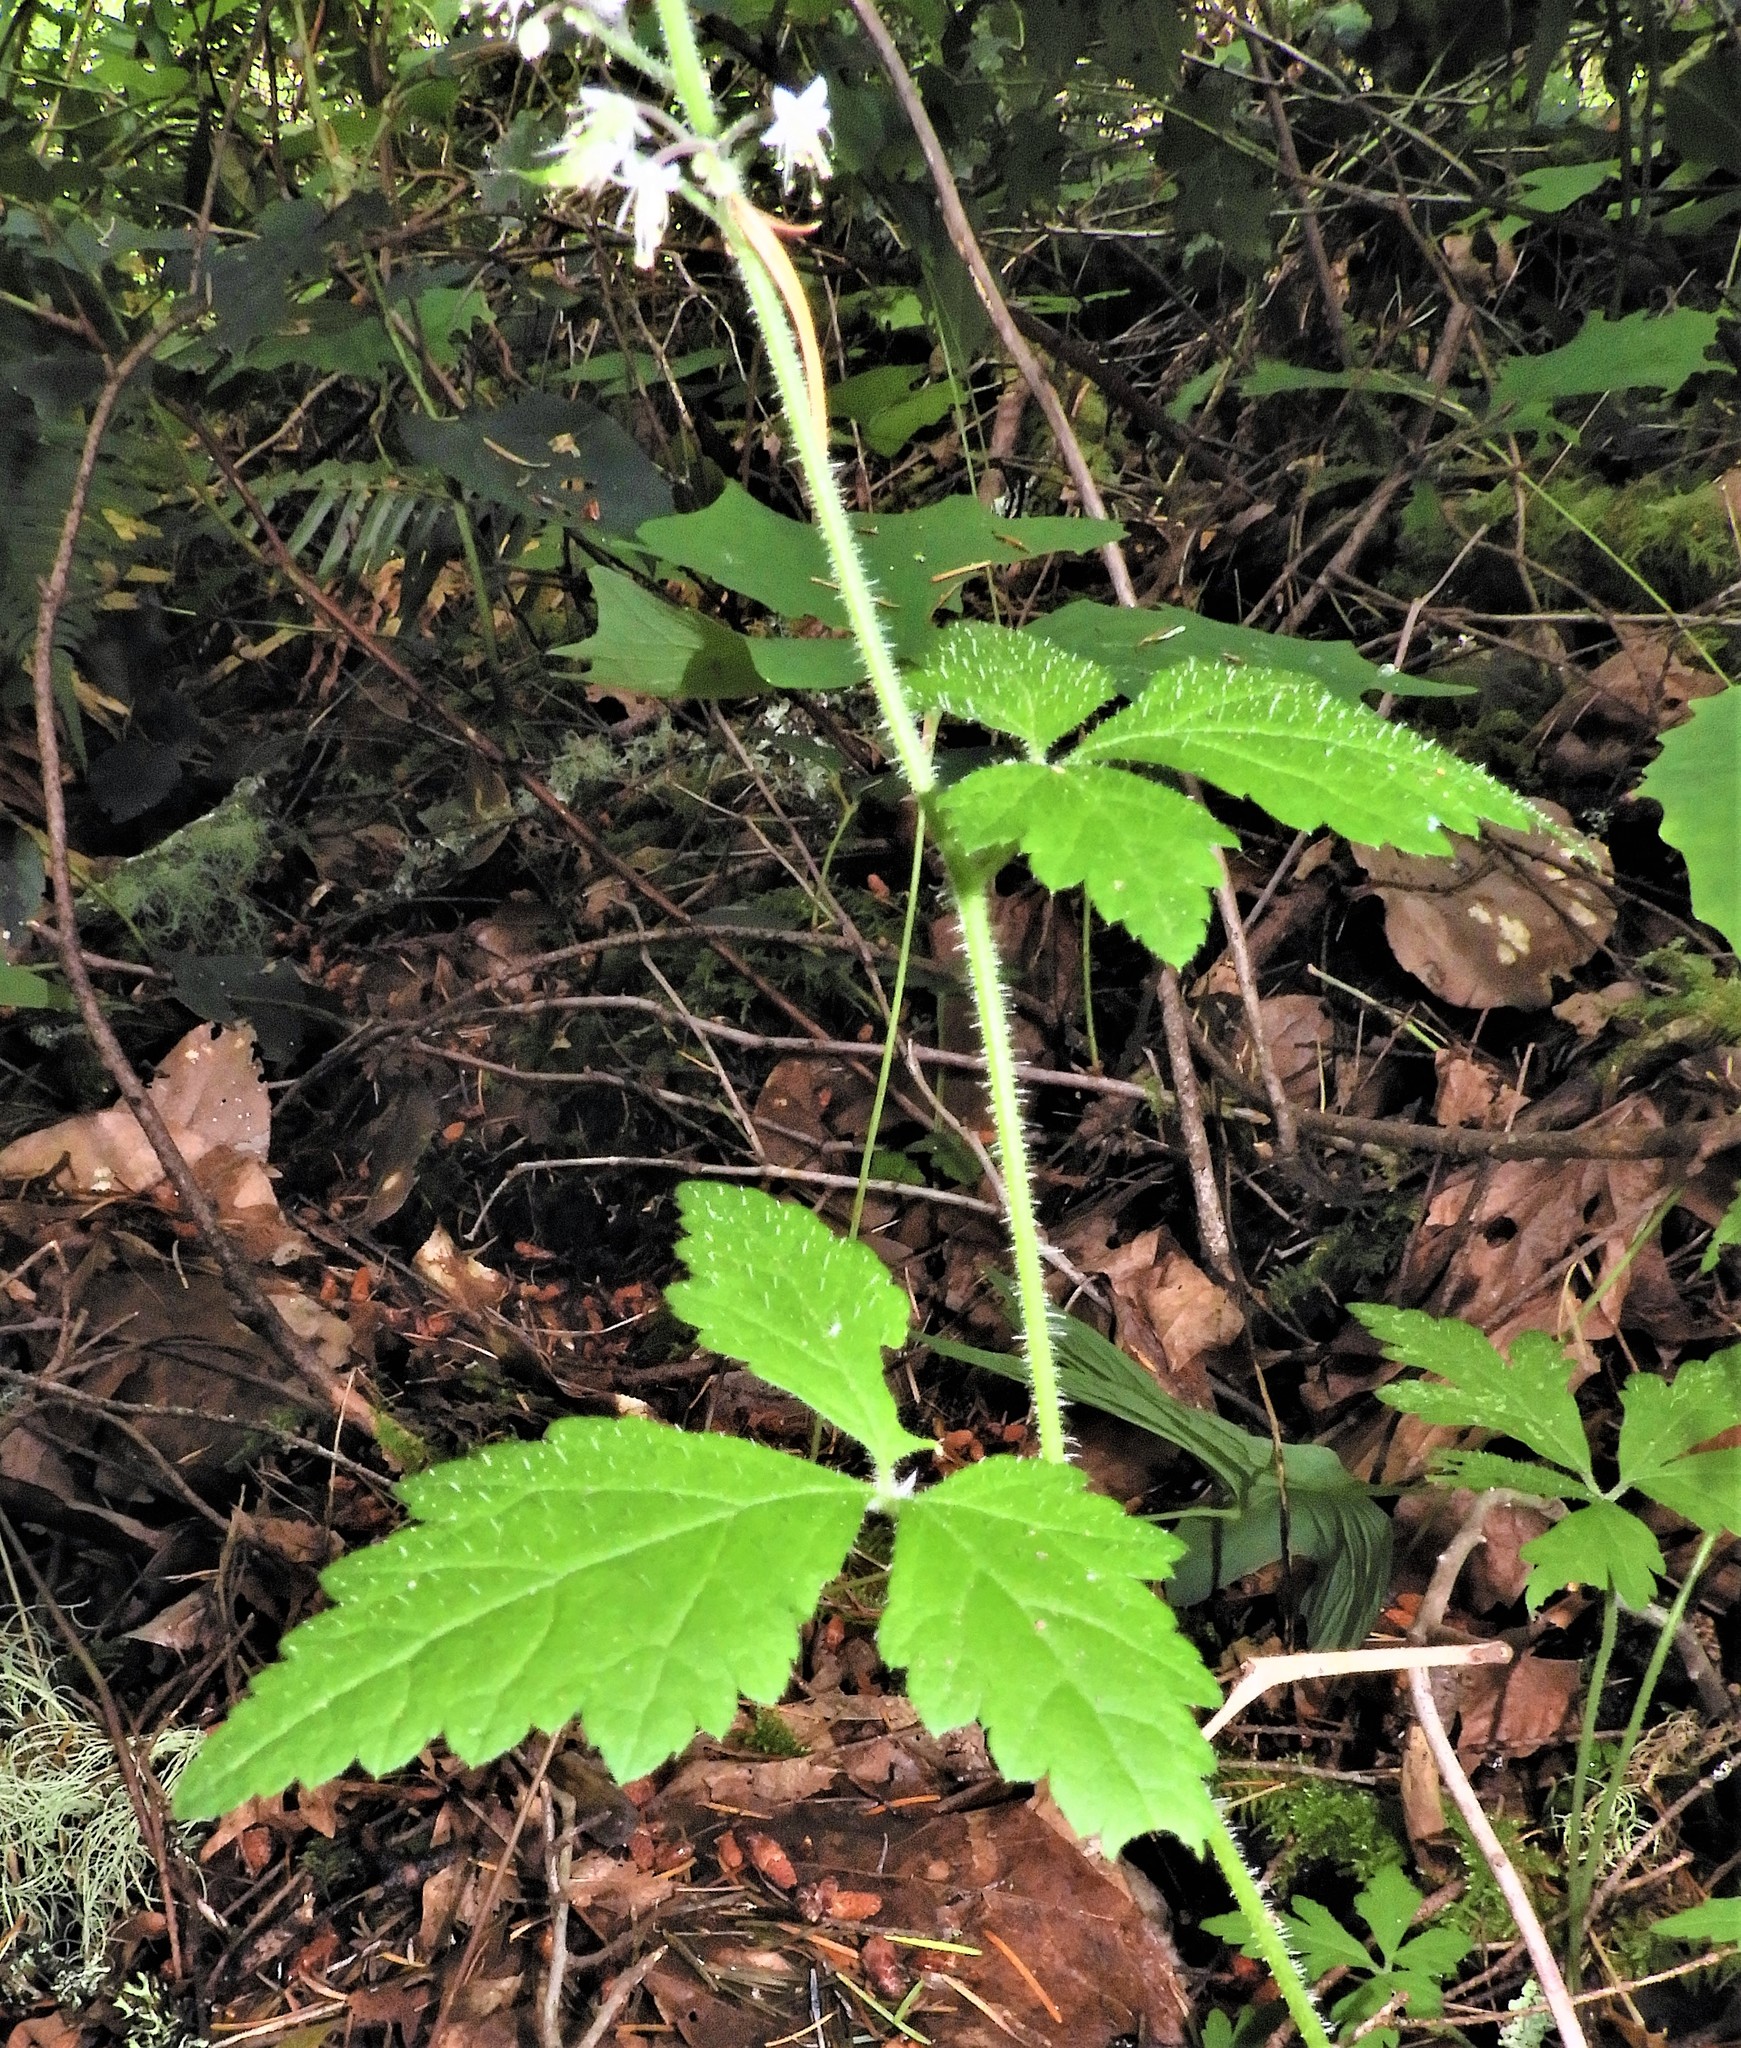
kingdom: Plantae
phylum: Tracheophyta
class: Magnoliopsida
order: Saxifragales
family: Saxifragaceae
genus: Tiarella
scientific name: Tiarella trifoliata
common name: Sugar-scoop
